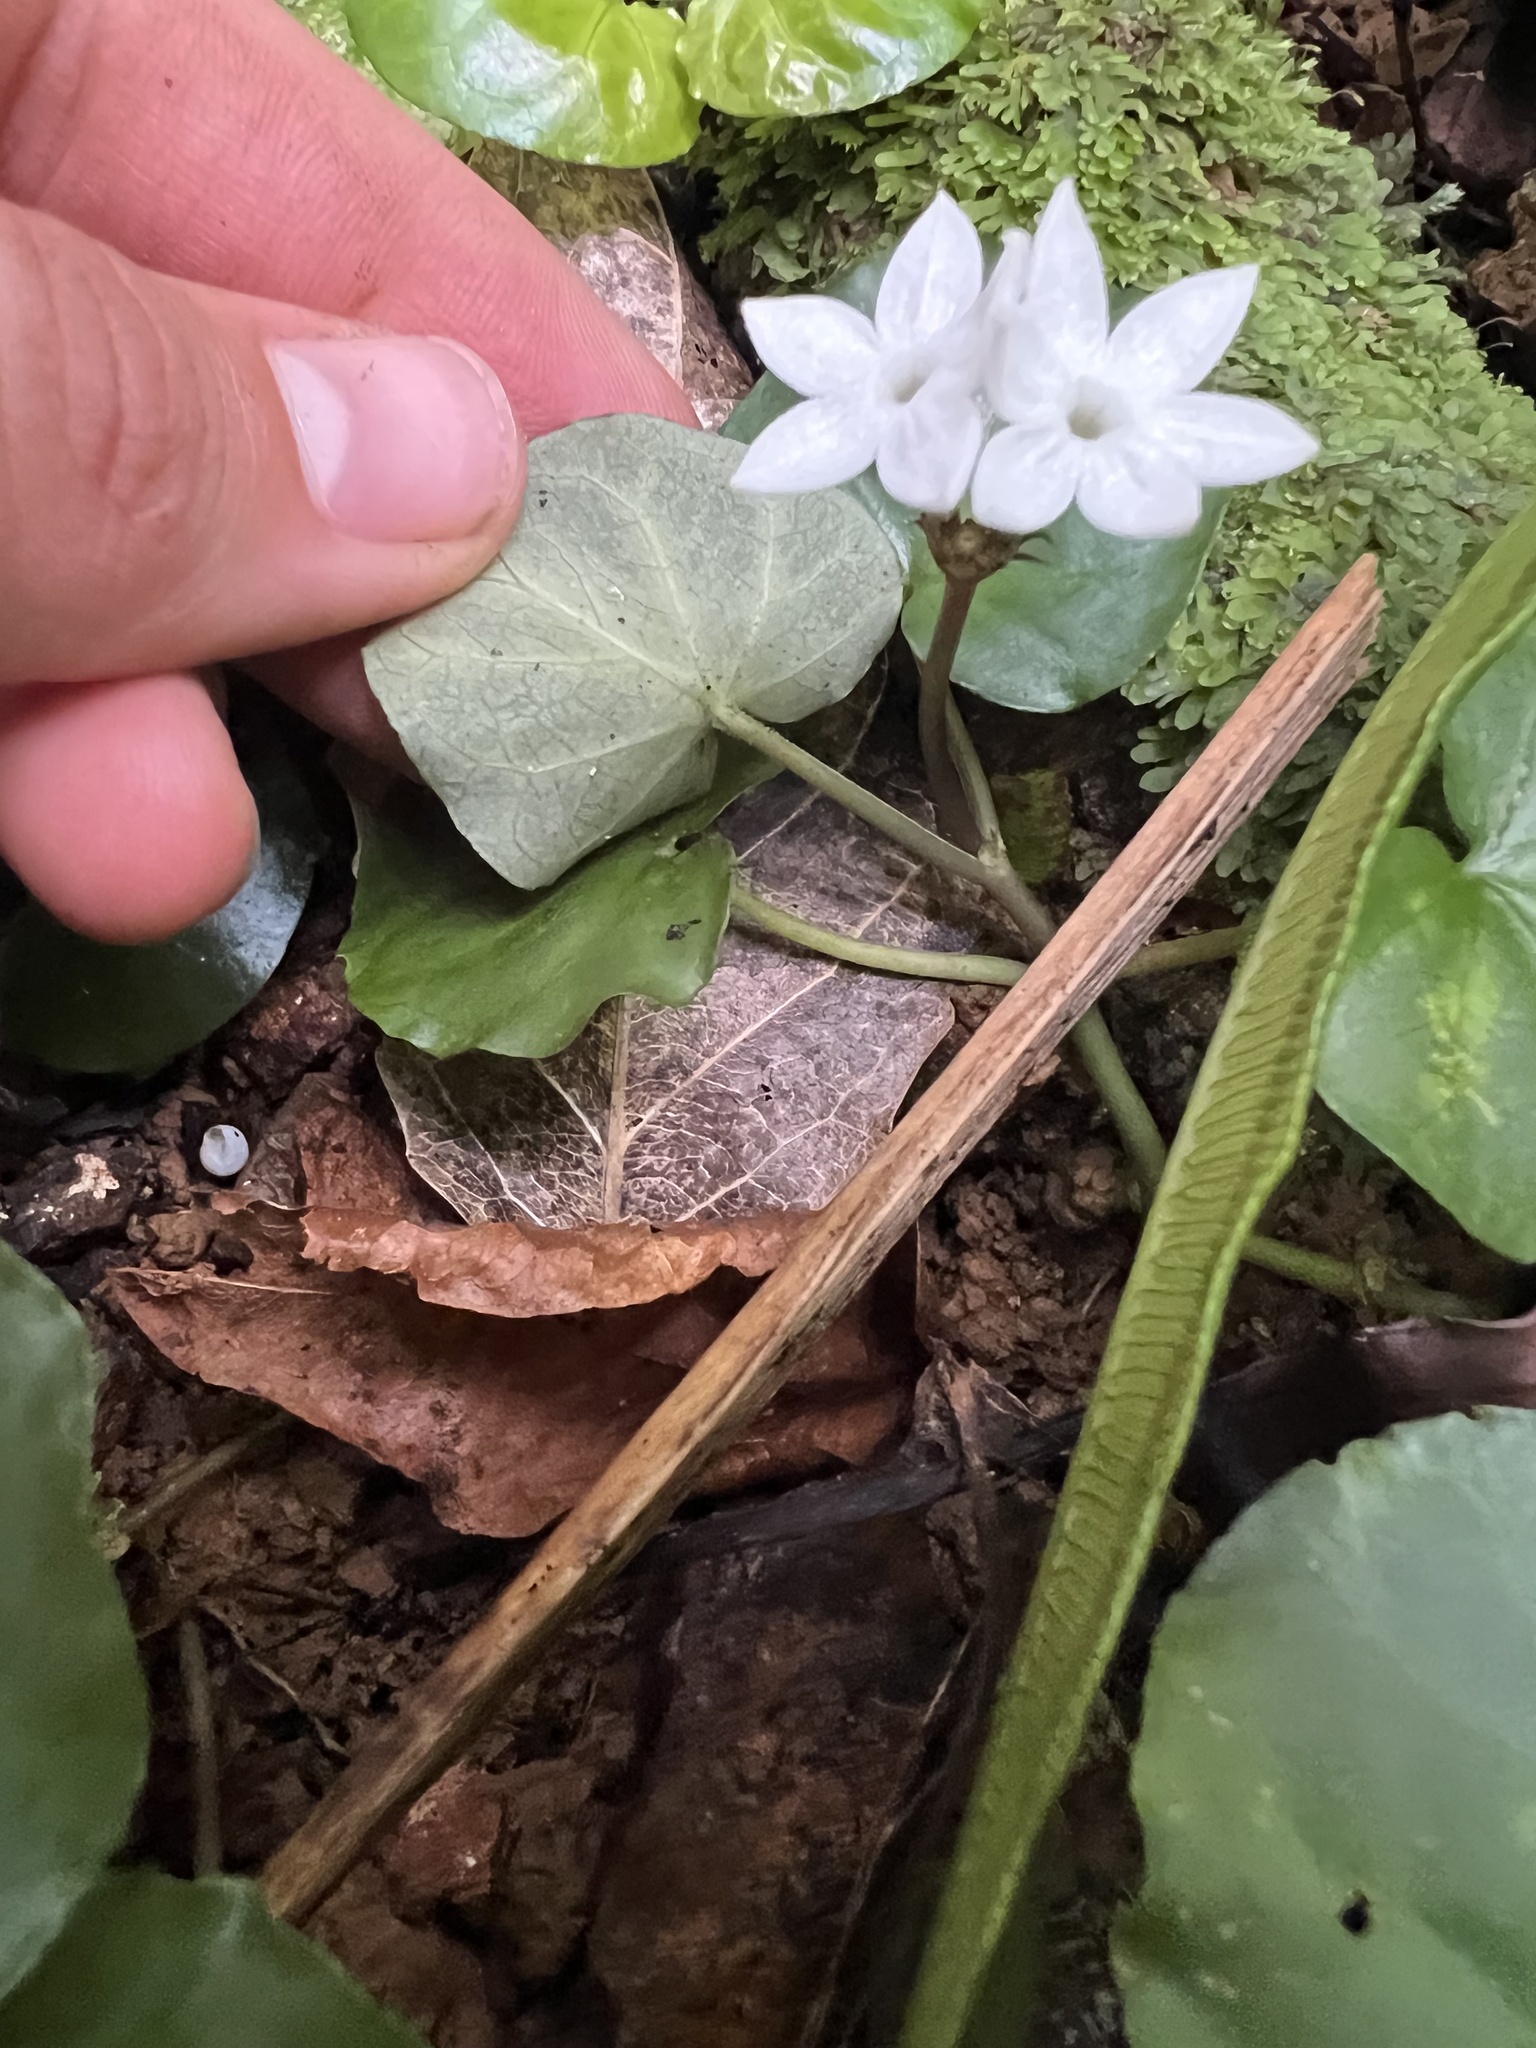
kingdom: Plantae
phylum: Tracheophyta
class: Magnoliopsida
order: Gentianales
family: Rubiaceae
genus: Geophila
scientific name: Geophila herbacea
